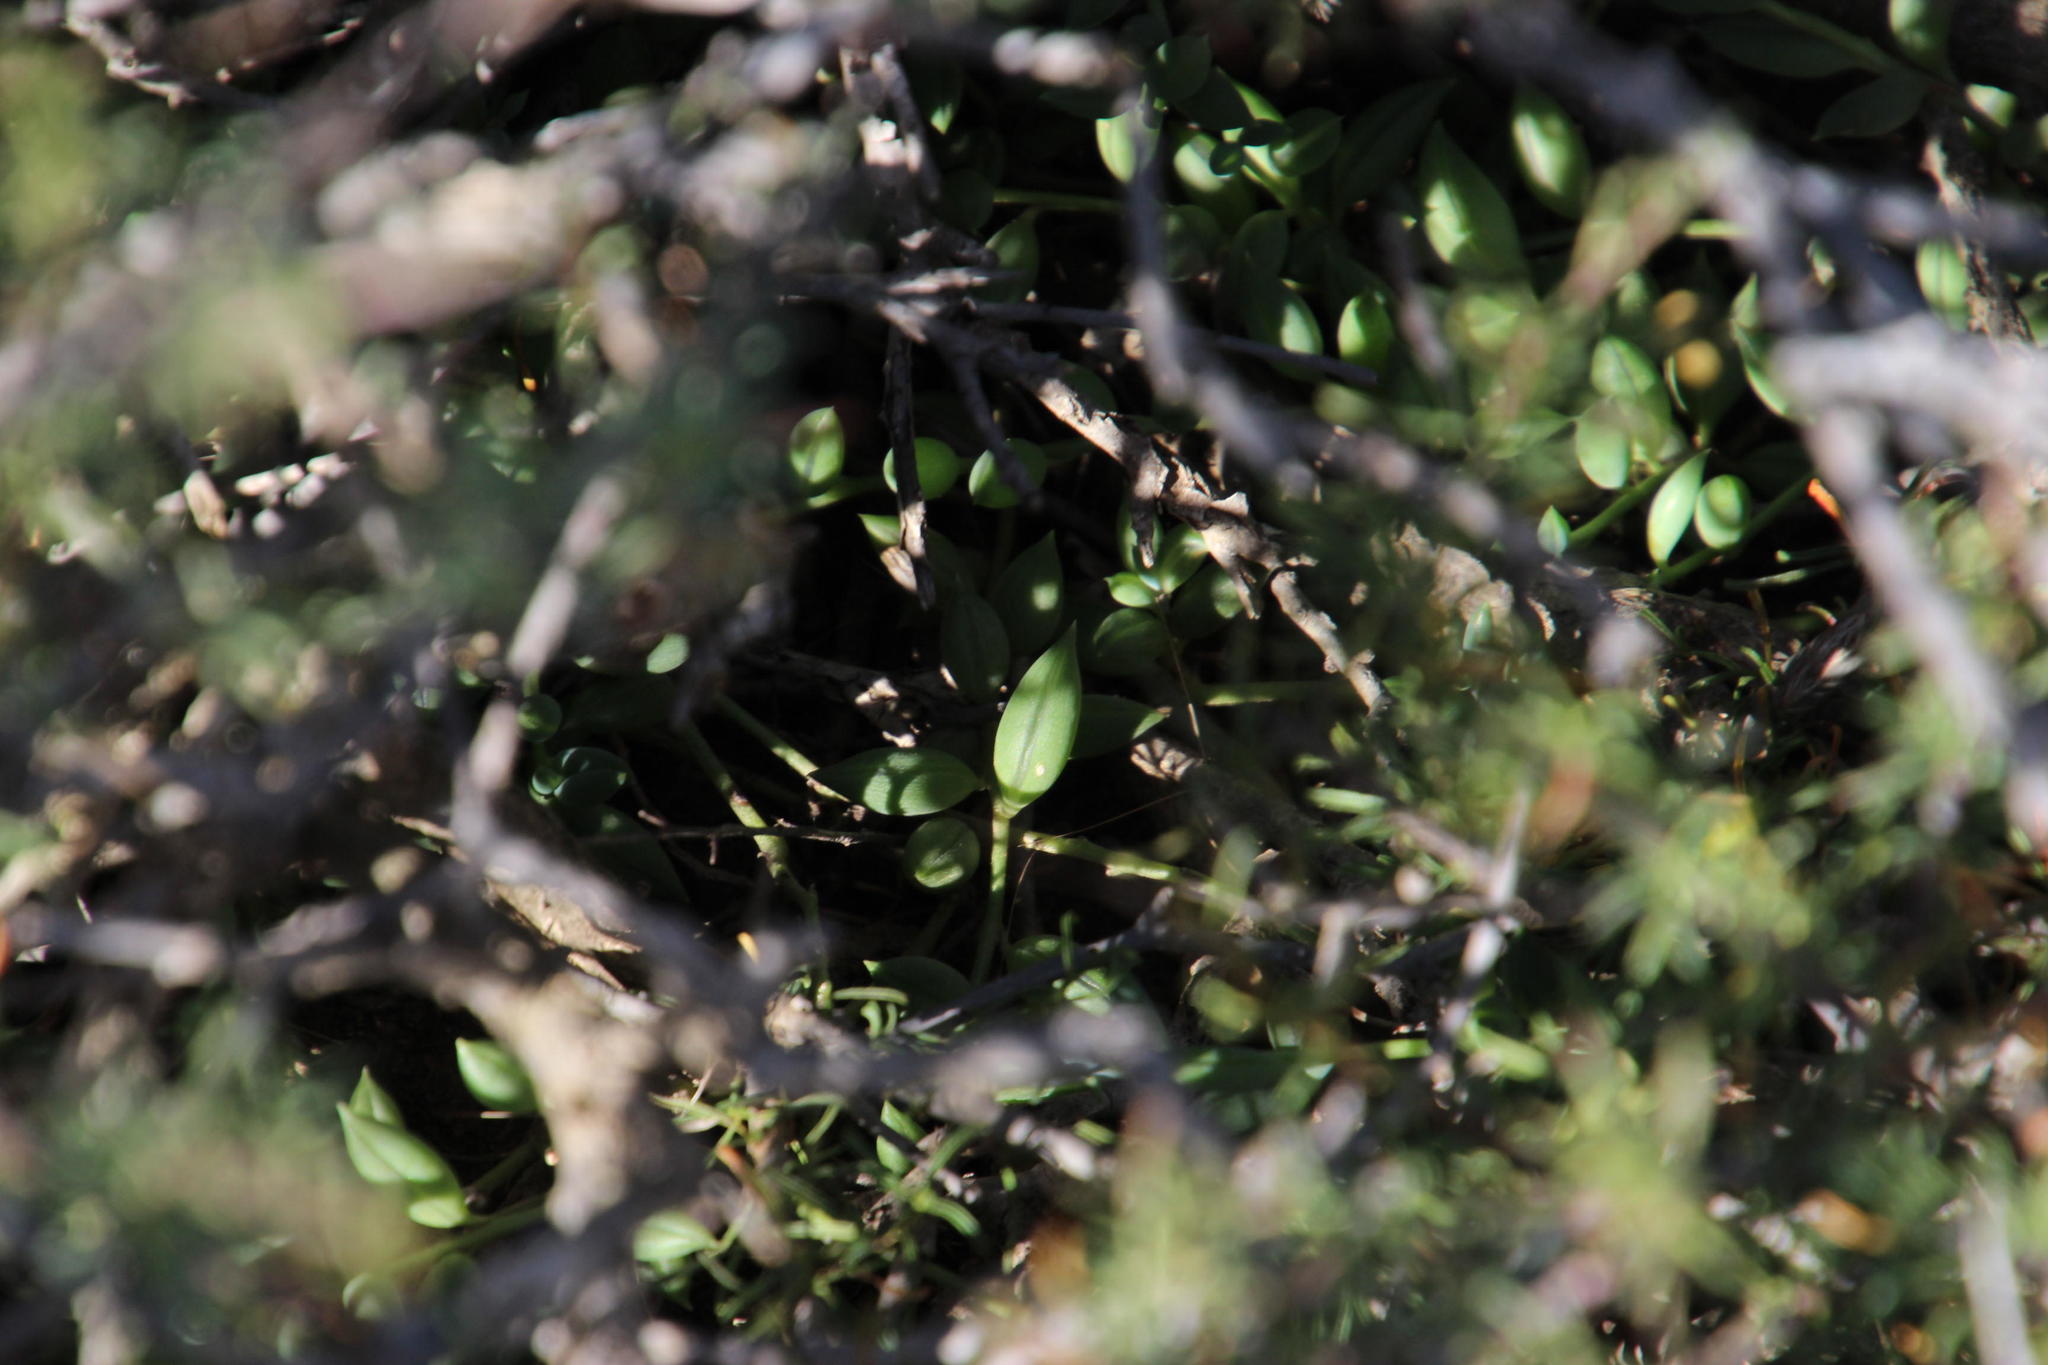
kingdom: Plantae
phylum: Tracheophyta
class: Magnoliopsida
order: Asterales
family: Asteraceae
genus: Curio
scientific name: Curio radicans
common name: Creeping-berry
